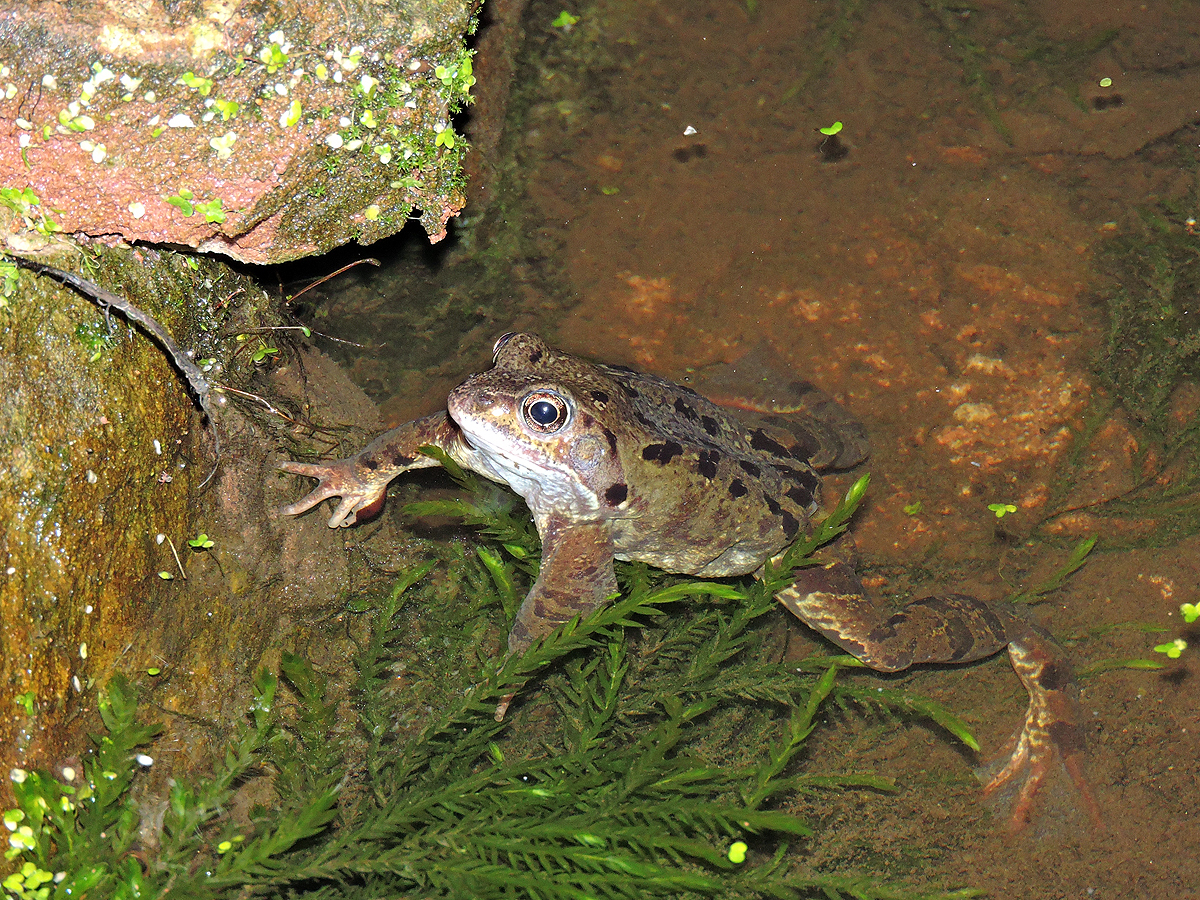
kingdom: Animalia
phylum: Chordata
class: Amphibia
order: Anura
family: Ranidae
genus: Rana
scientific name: Rana temporaria
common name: Common frog
